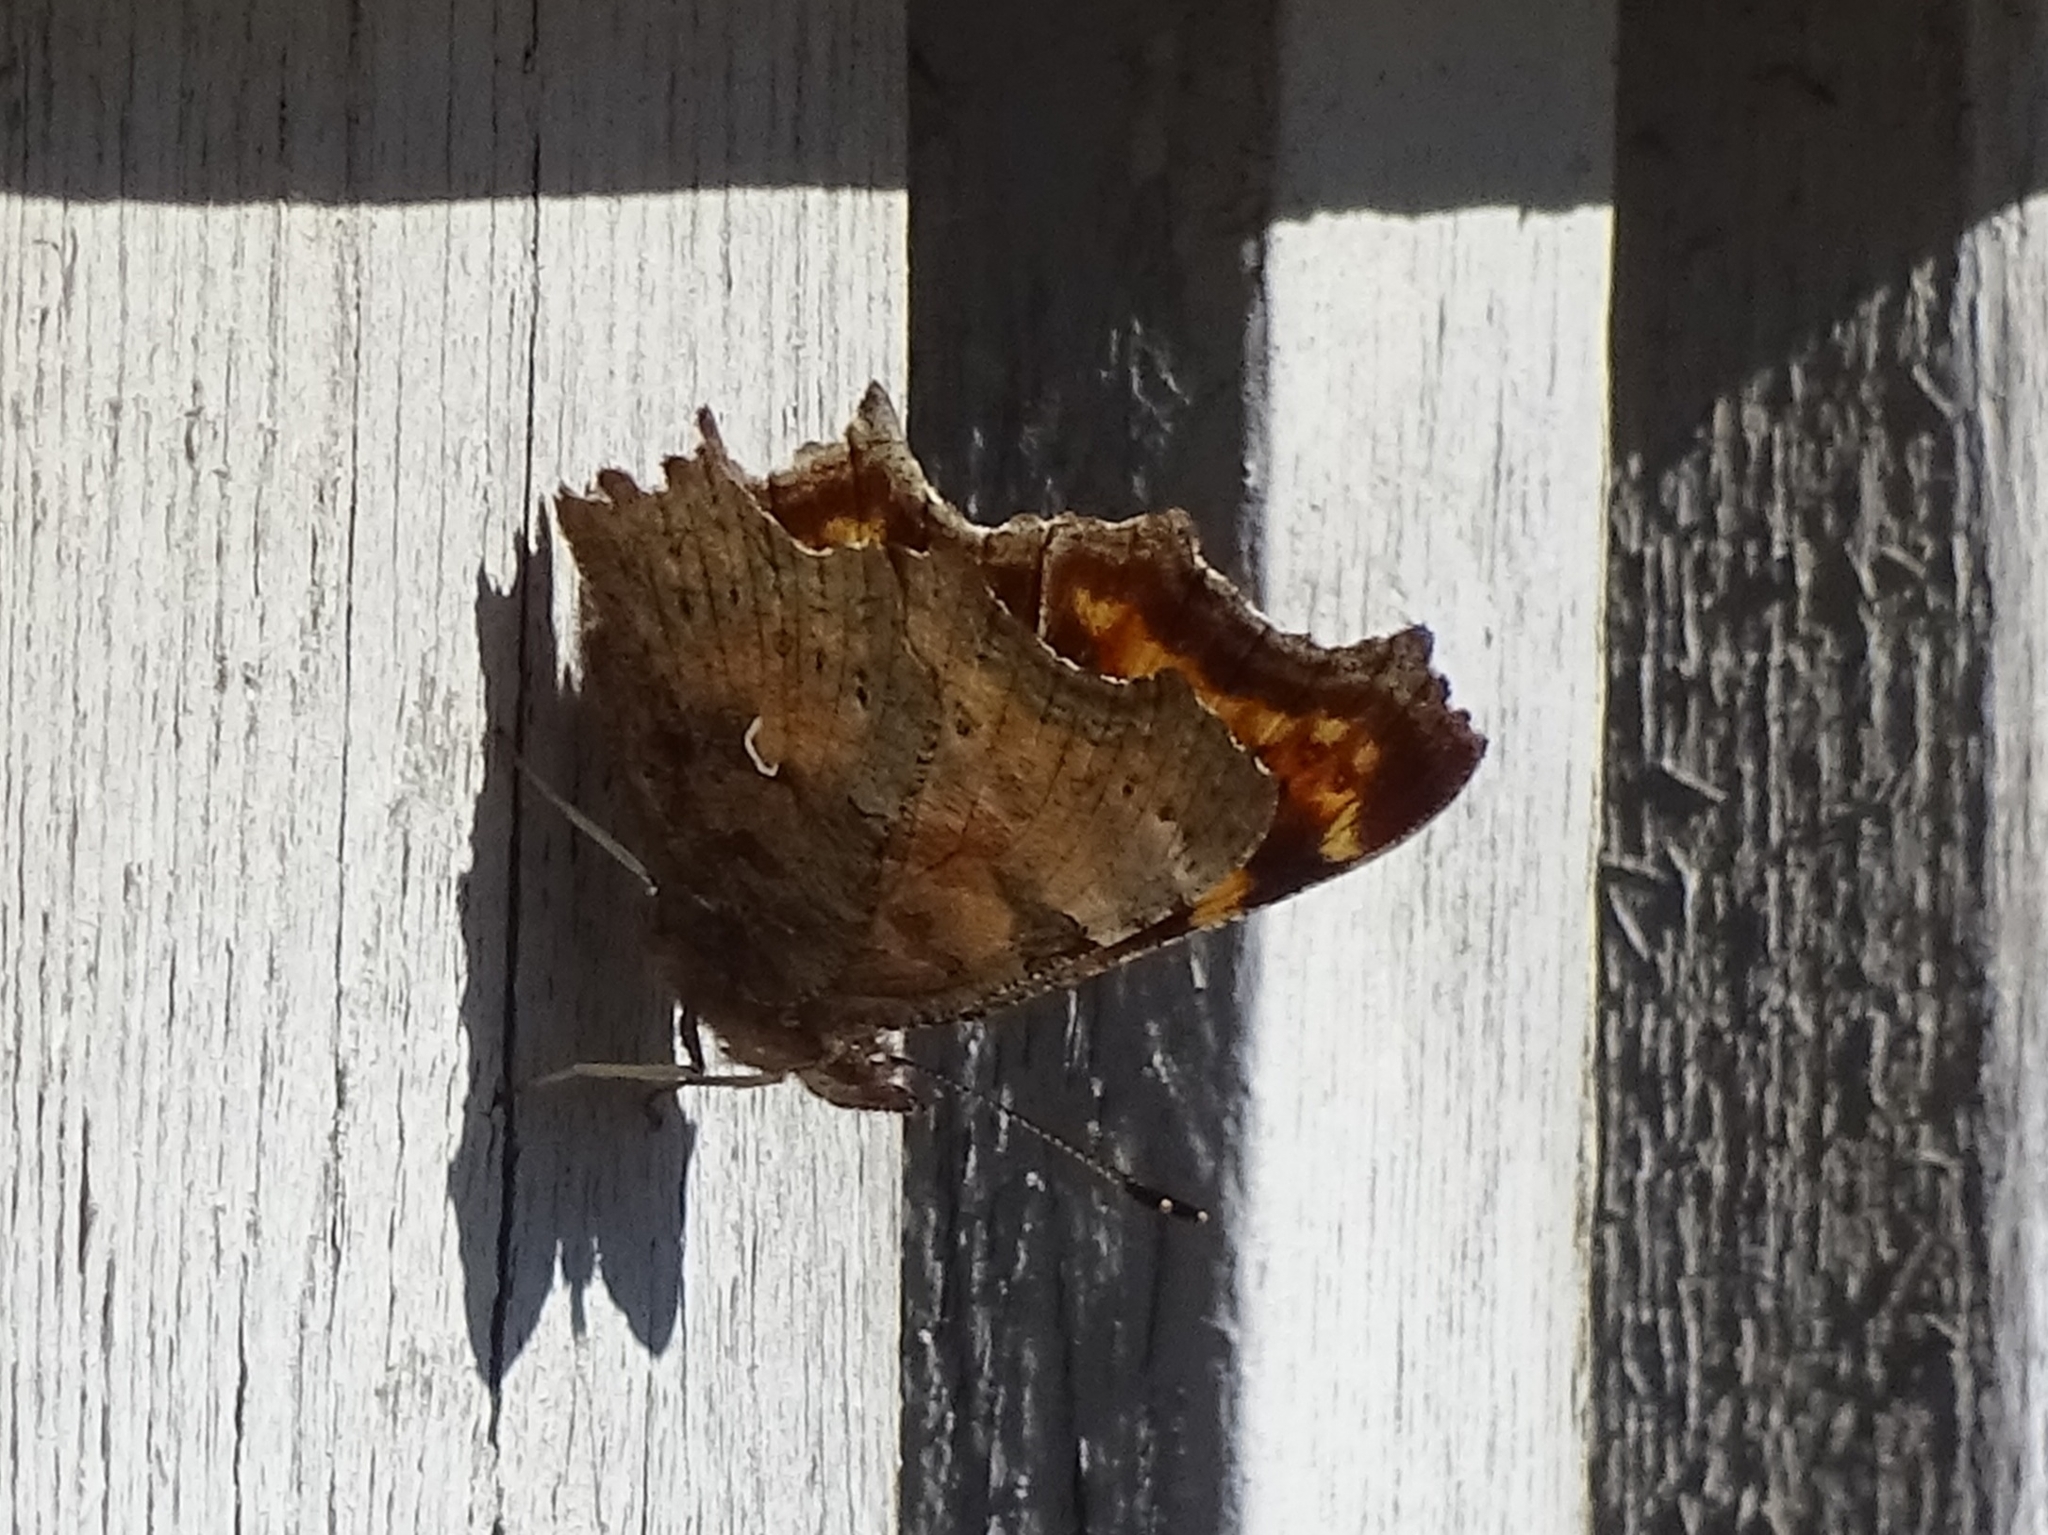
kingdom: Animalia
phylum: Arthropoda
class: Insecta
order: Lepidoptera
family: Nymphalidae
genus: Polygonia
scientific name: Polygonia c-album
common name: Comma
